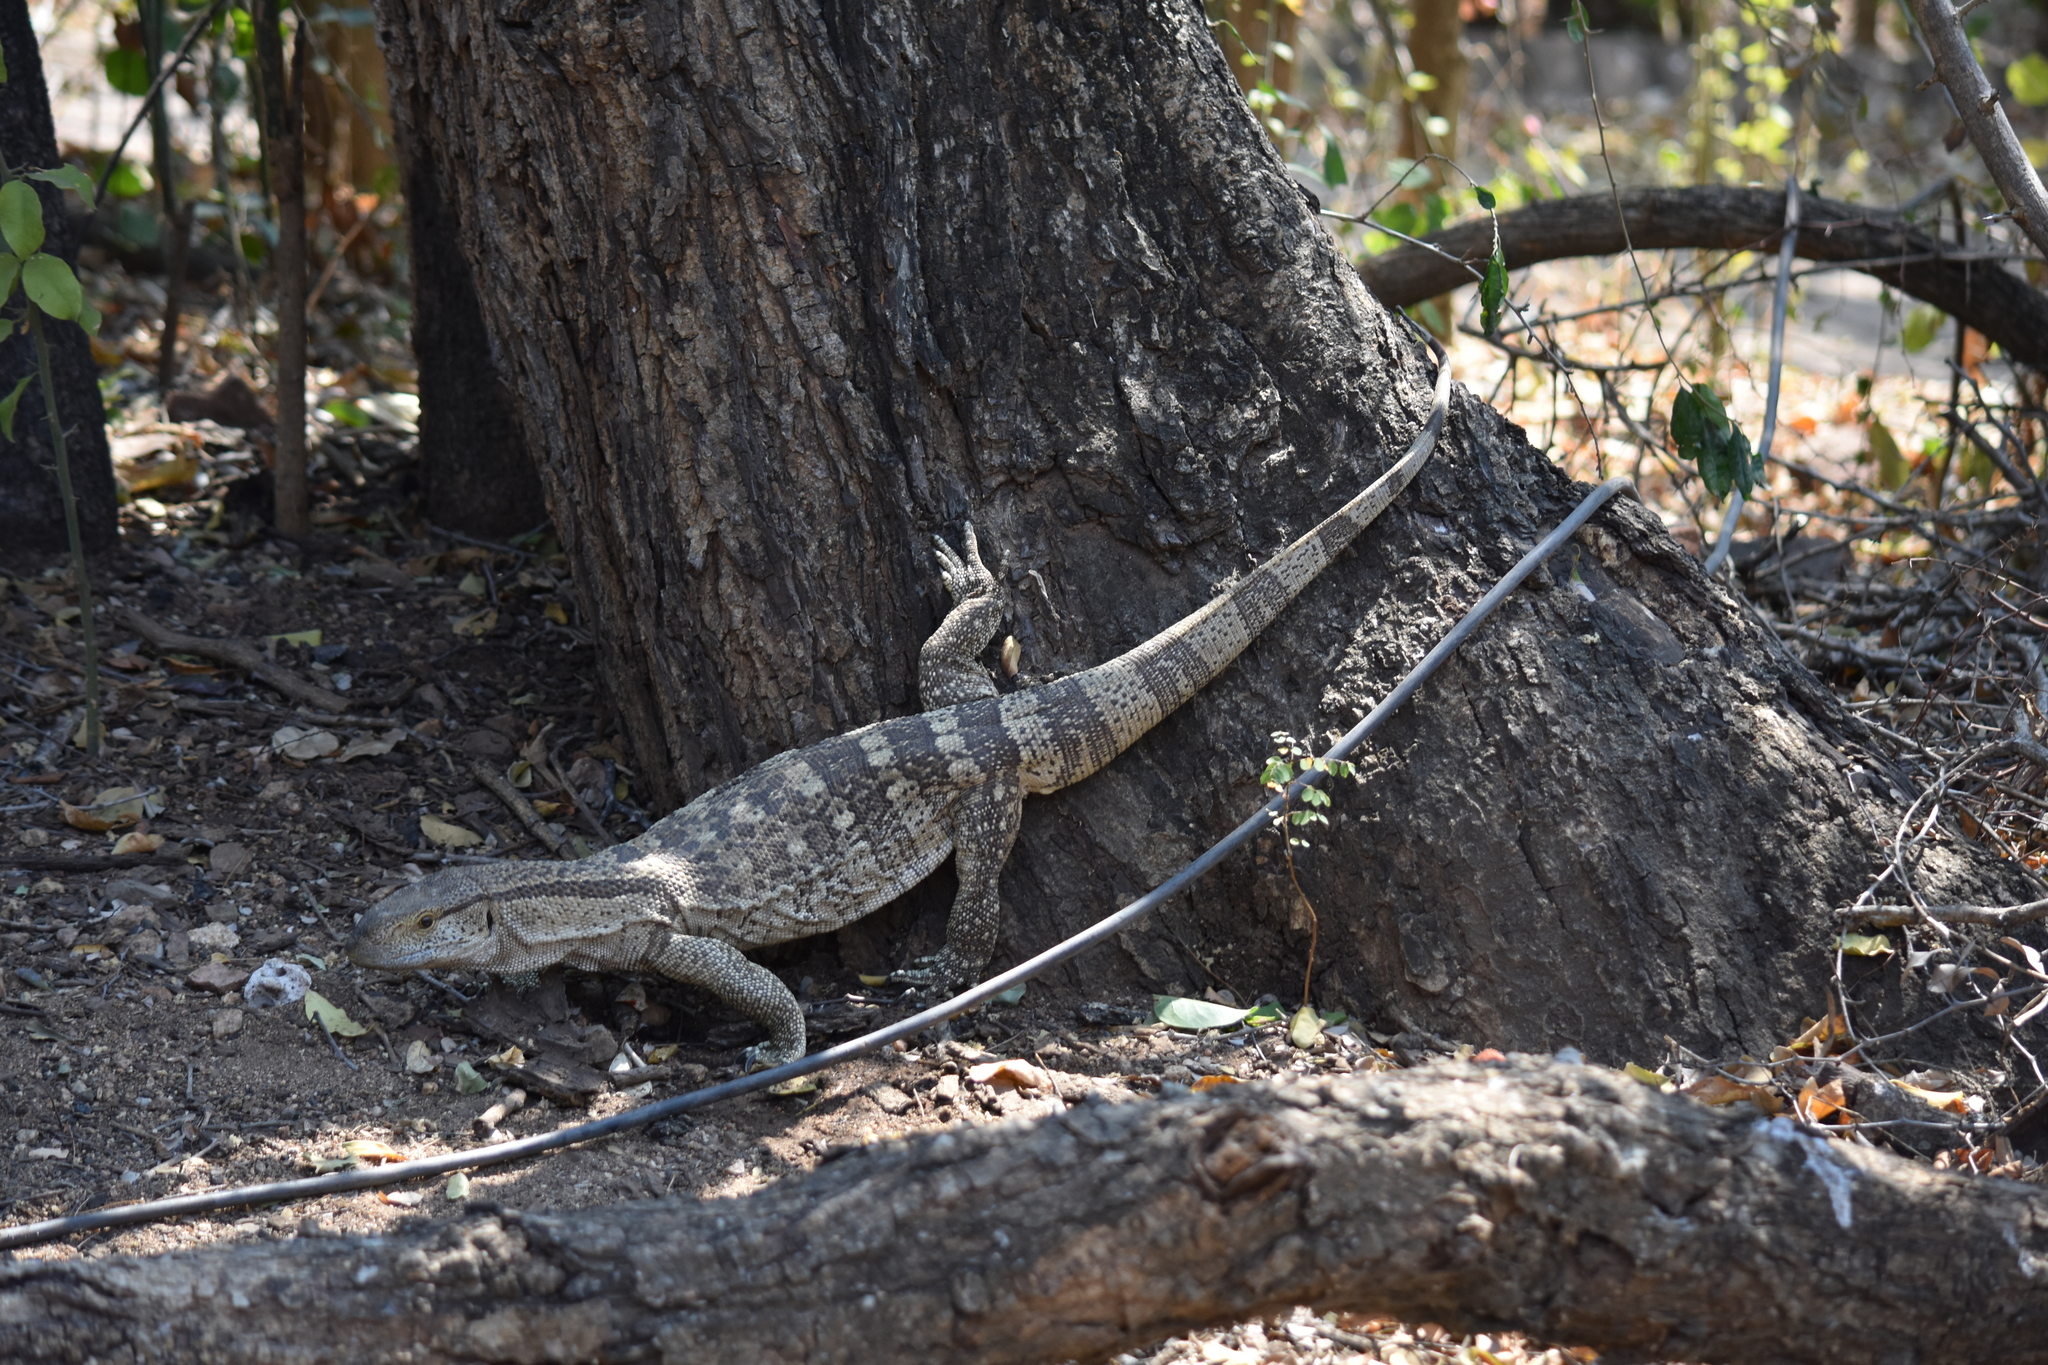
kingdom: Animalia
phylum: Chordata
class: Squamata
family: Varanidae
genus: Varanus
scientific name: Varanus albigularis
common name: White-throated monitor
